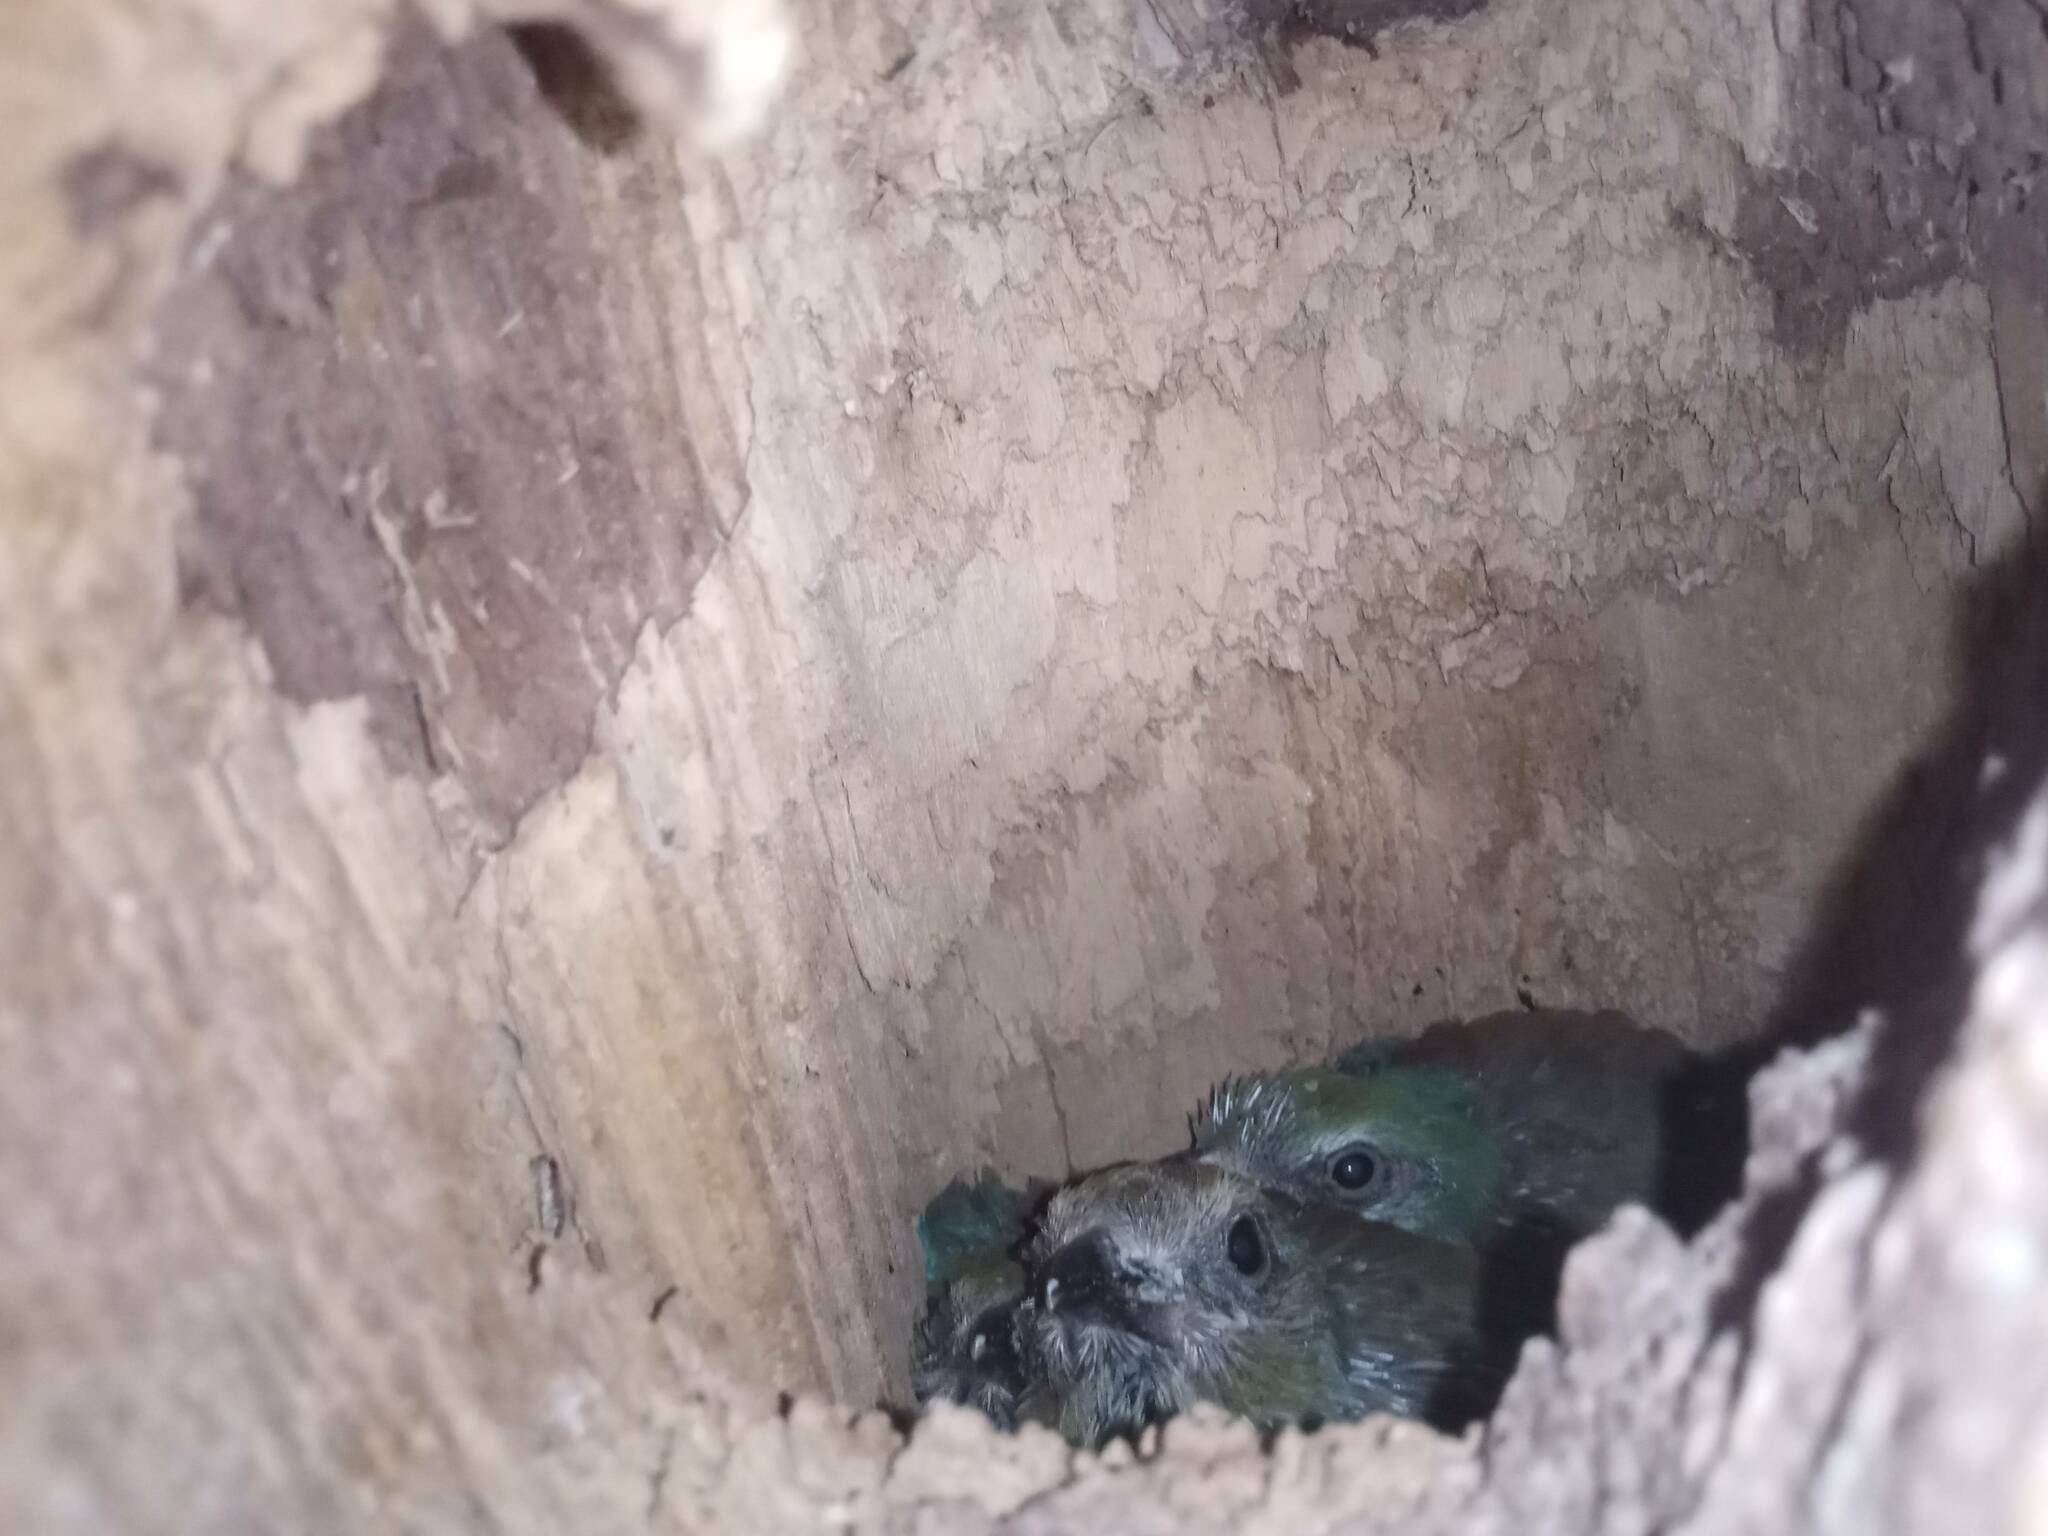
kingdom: Animalia
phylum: Chordata
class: Aves
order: Coraciiformes
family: Coraciidae
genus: Coracias
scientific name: Coracias garrulus
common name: European roller
